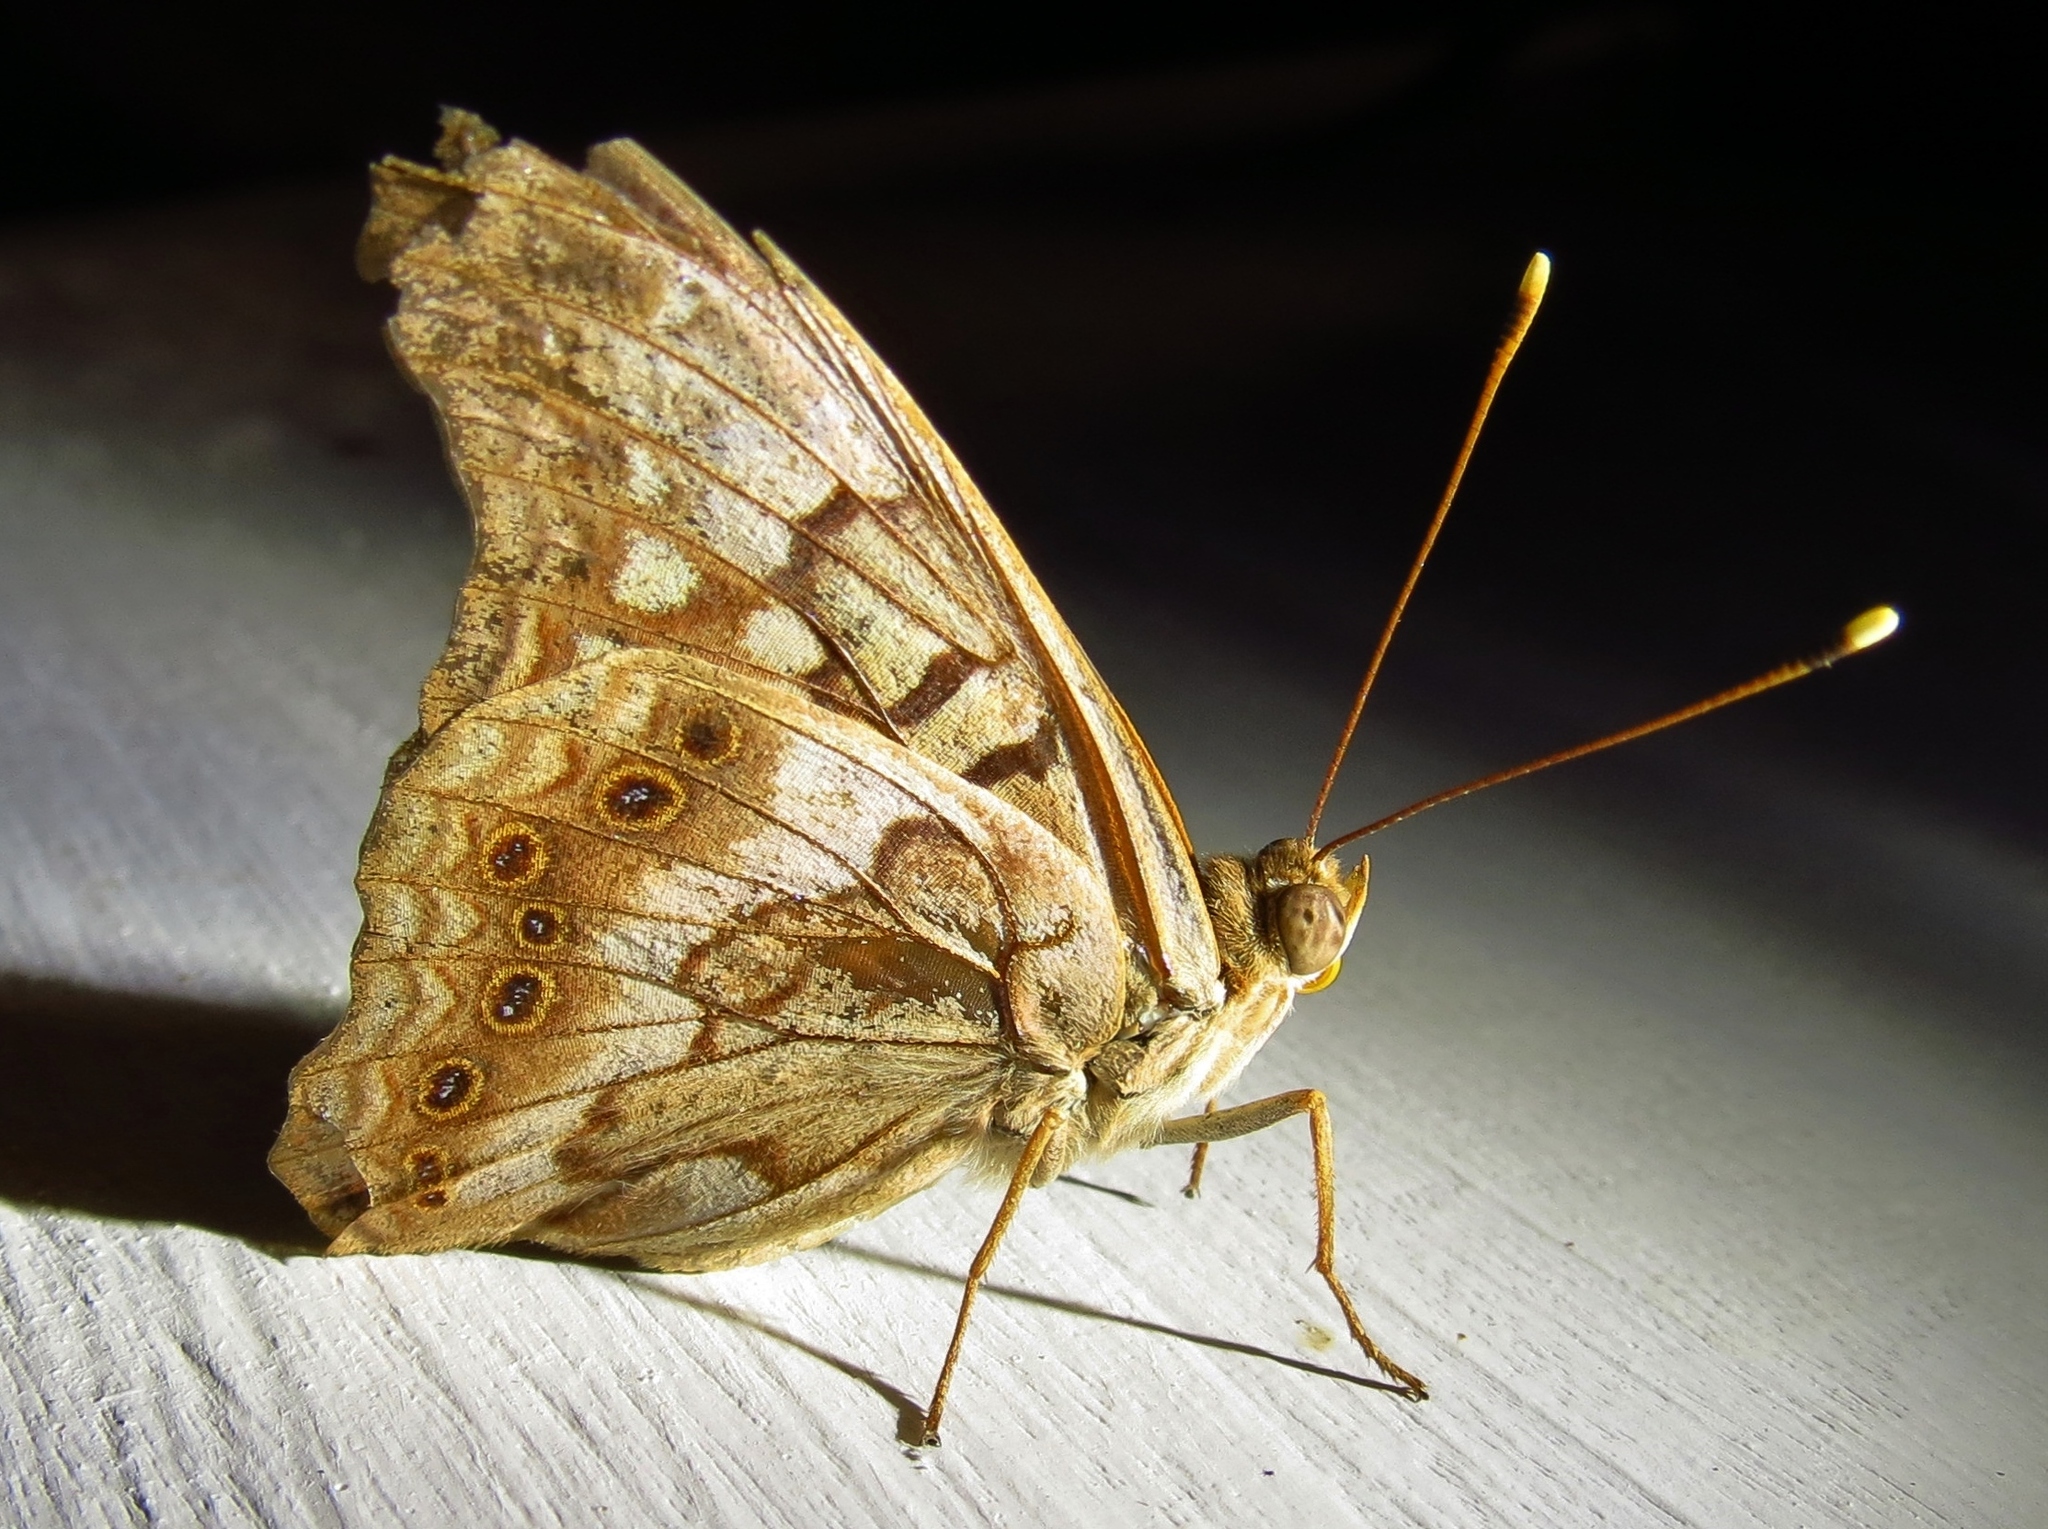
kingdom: Animalia
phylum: Arthropoda
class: Insecta
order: Lepidoptera
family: Nymphalidae
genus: Asterocampa
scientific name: Asterocampa clyton
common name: Tawny emperor
